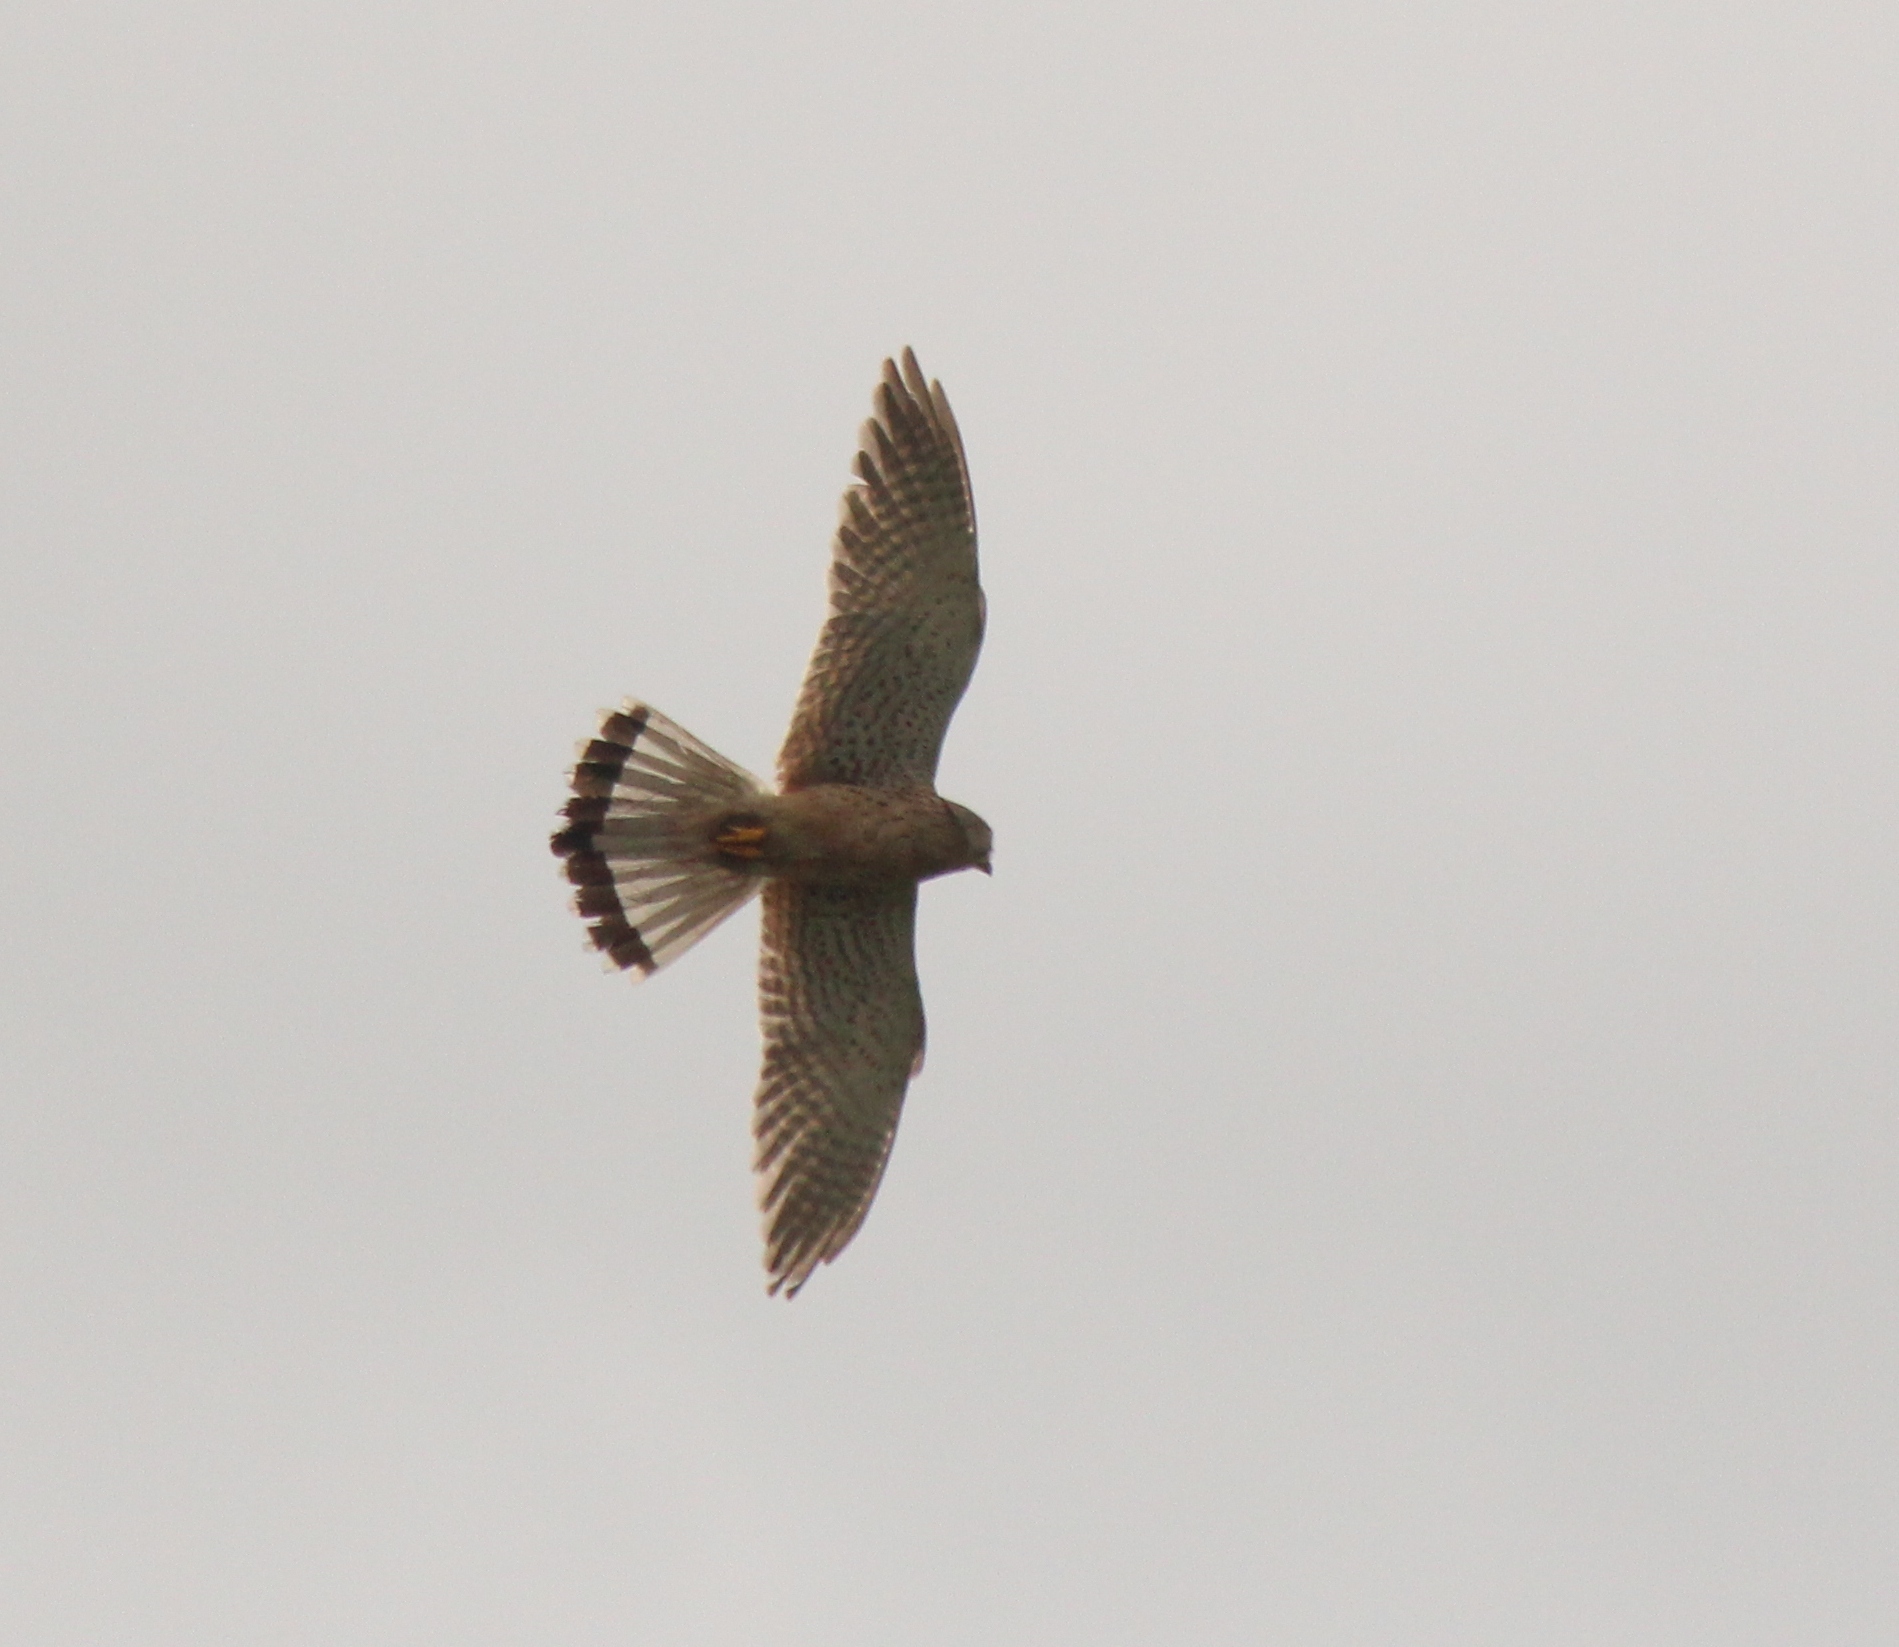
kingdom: Animalia
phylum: Chordata
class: Aves
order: Falconiformes
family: Falconidae
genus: Falco
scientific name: Falco tinnunculus
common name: Common kestrel
